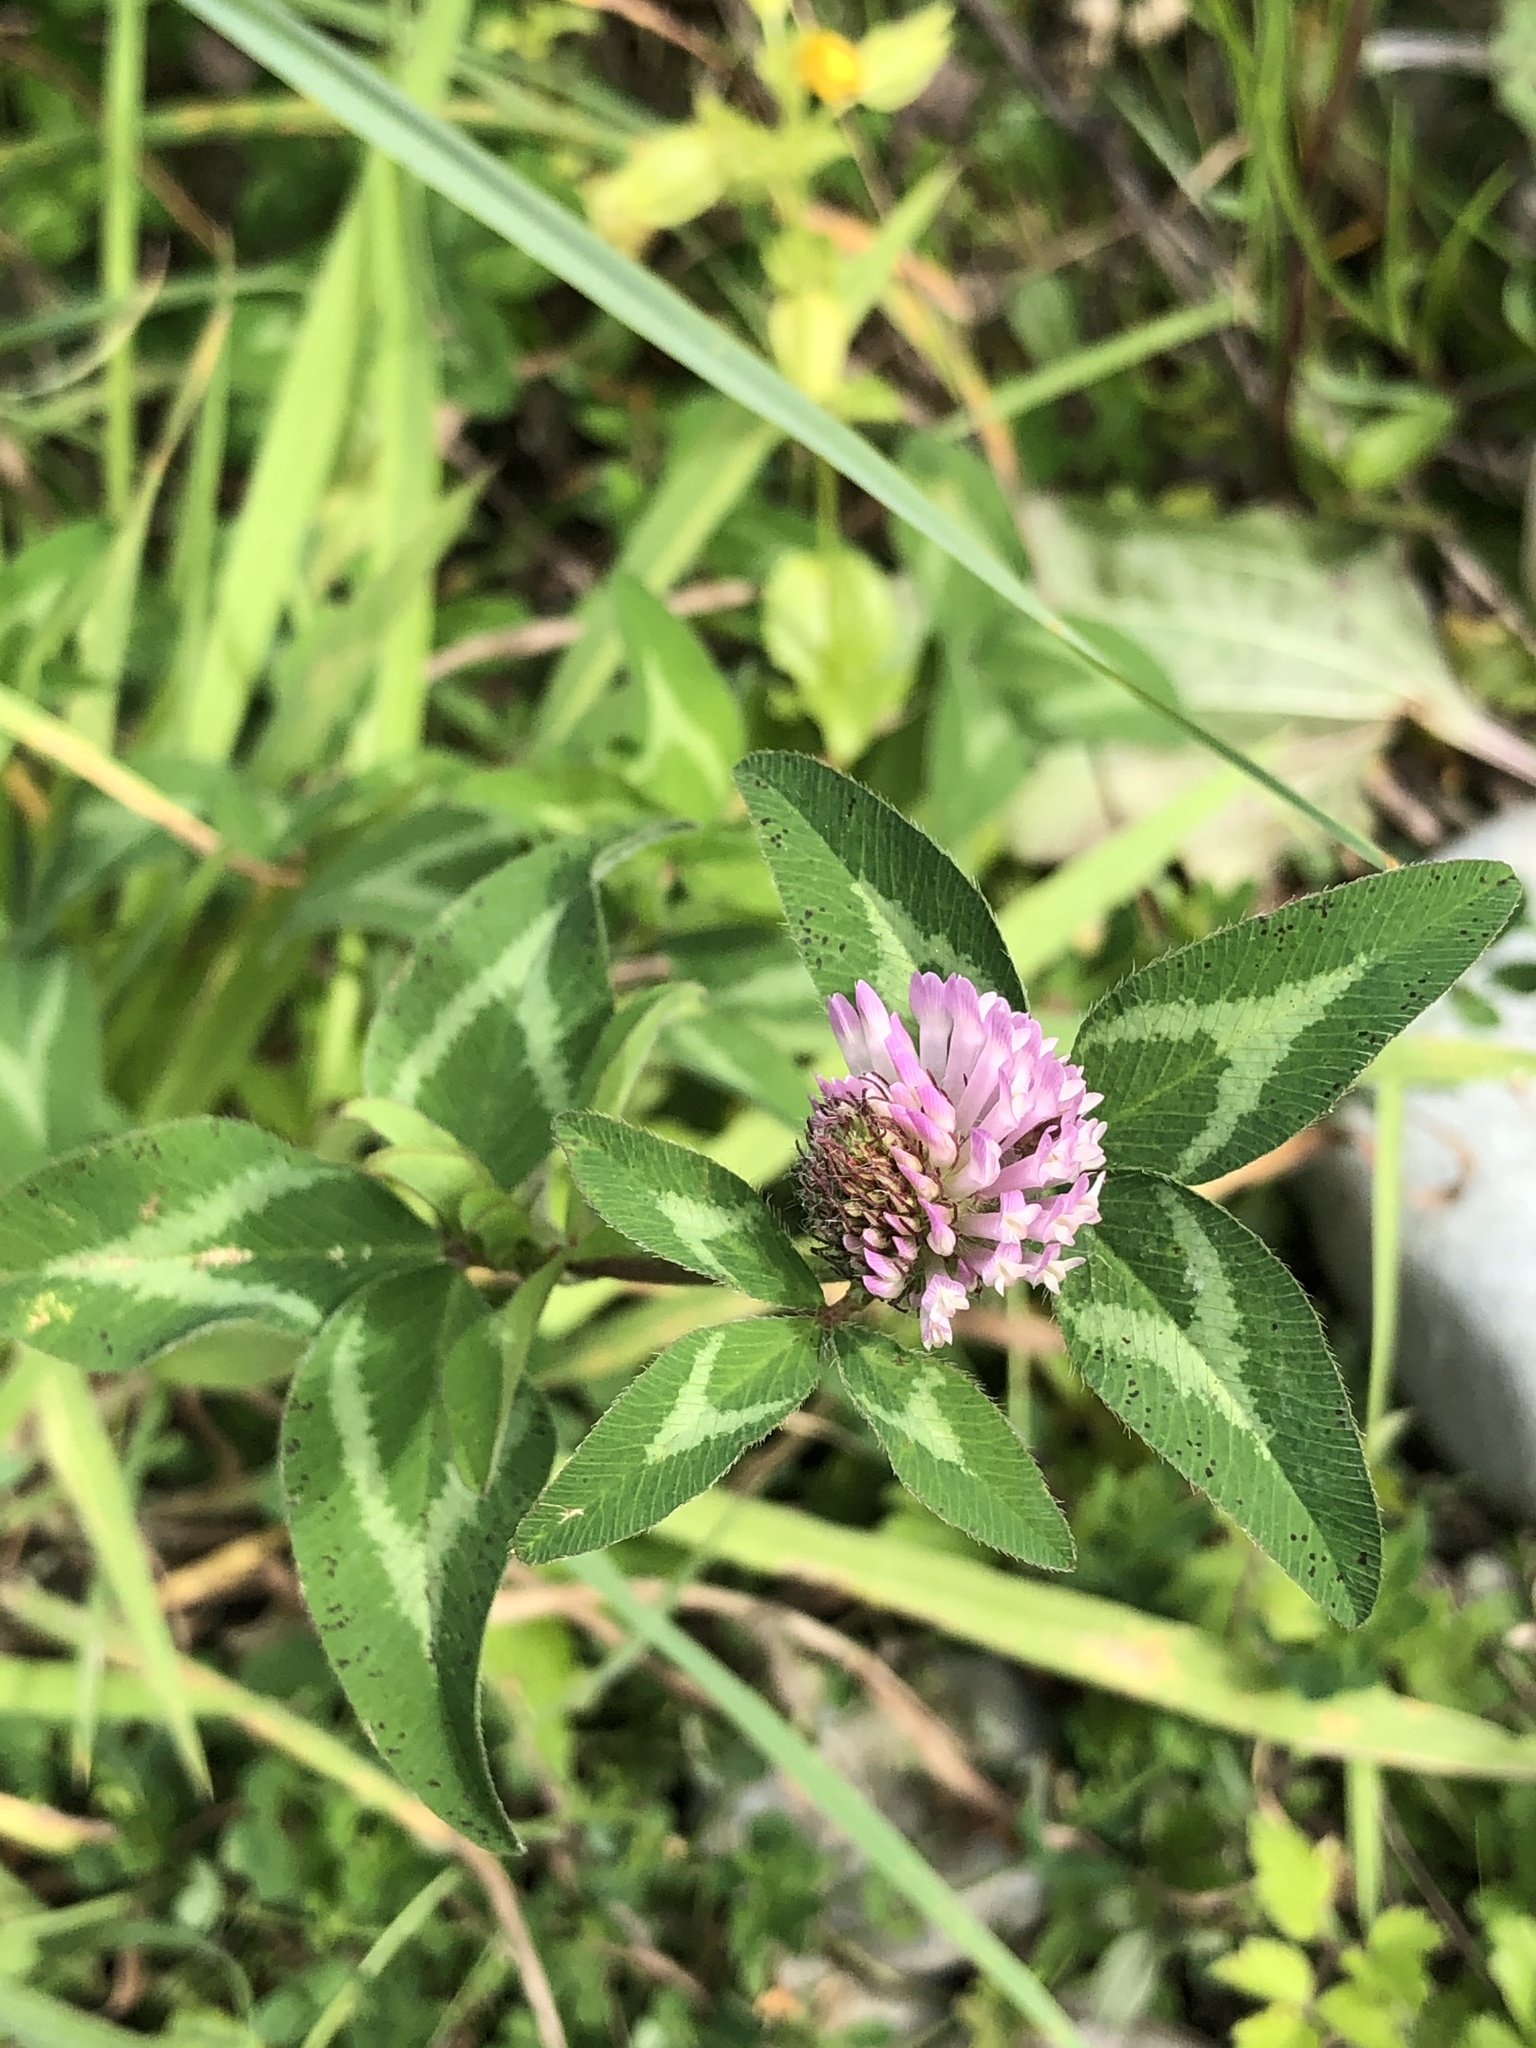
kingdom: Plantae
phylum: Tracheophyta
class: Magnoliopsida
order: Fabales
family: Fabaceae
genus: Trifolium
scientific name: Trifolium pratense
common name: Red clover
